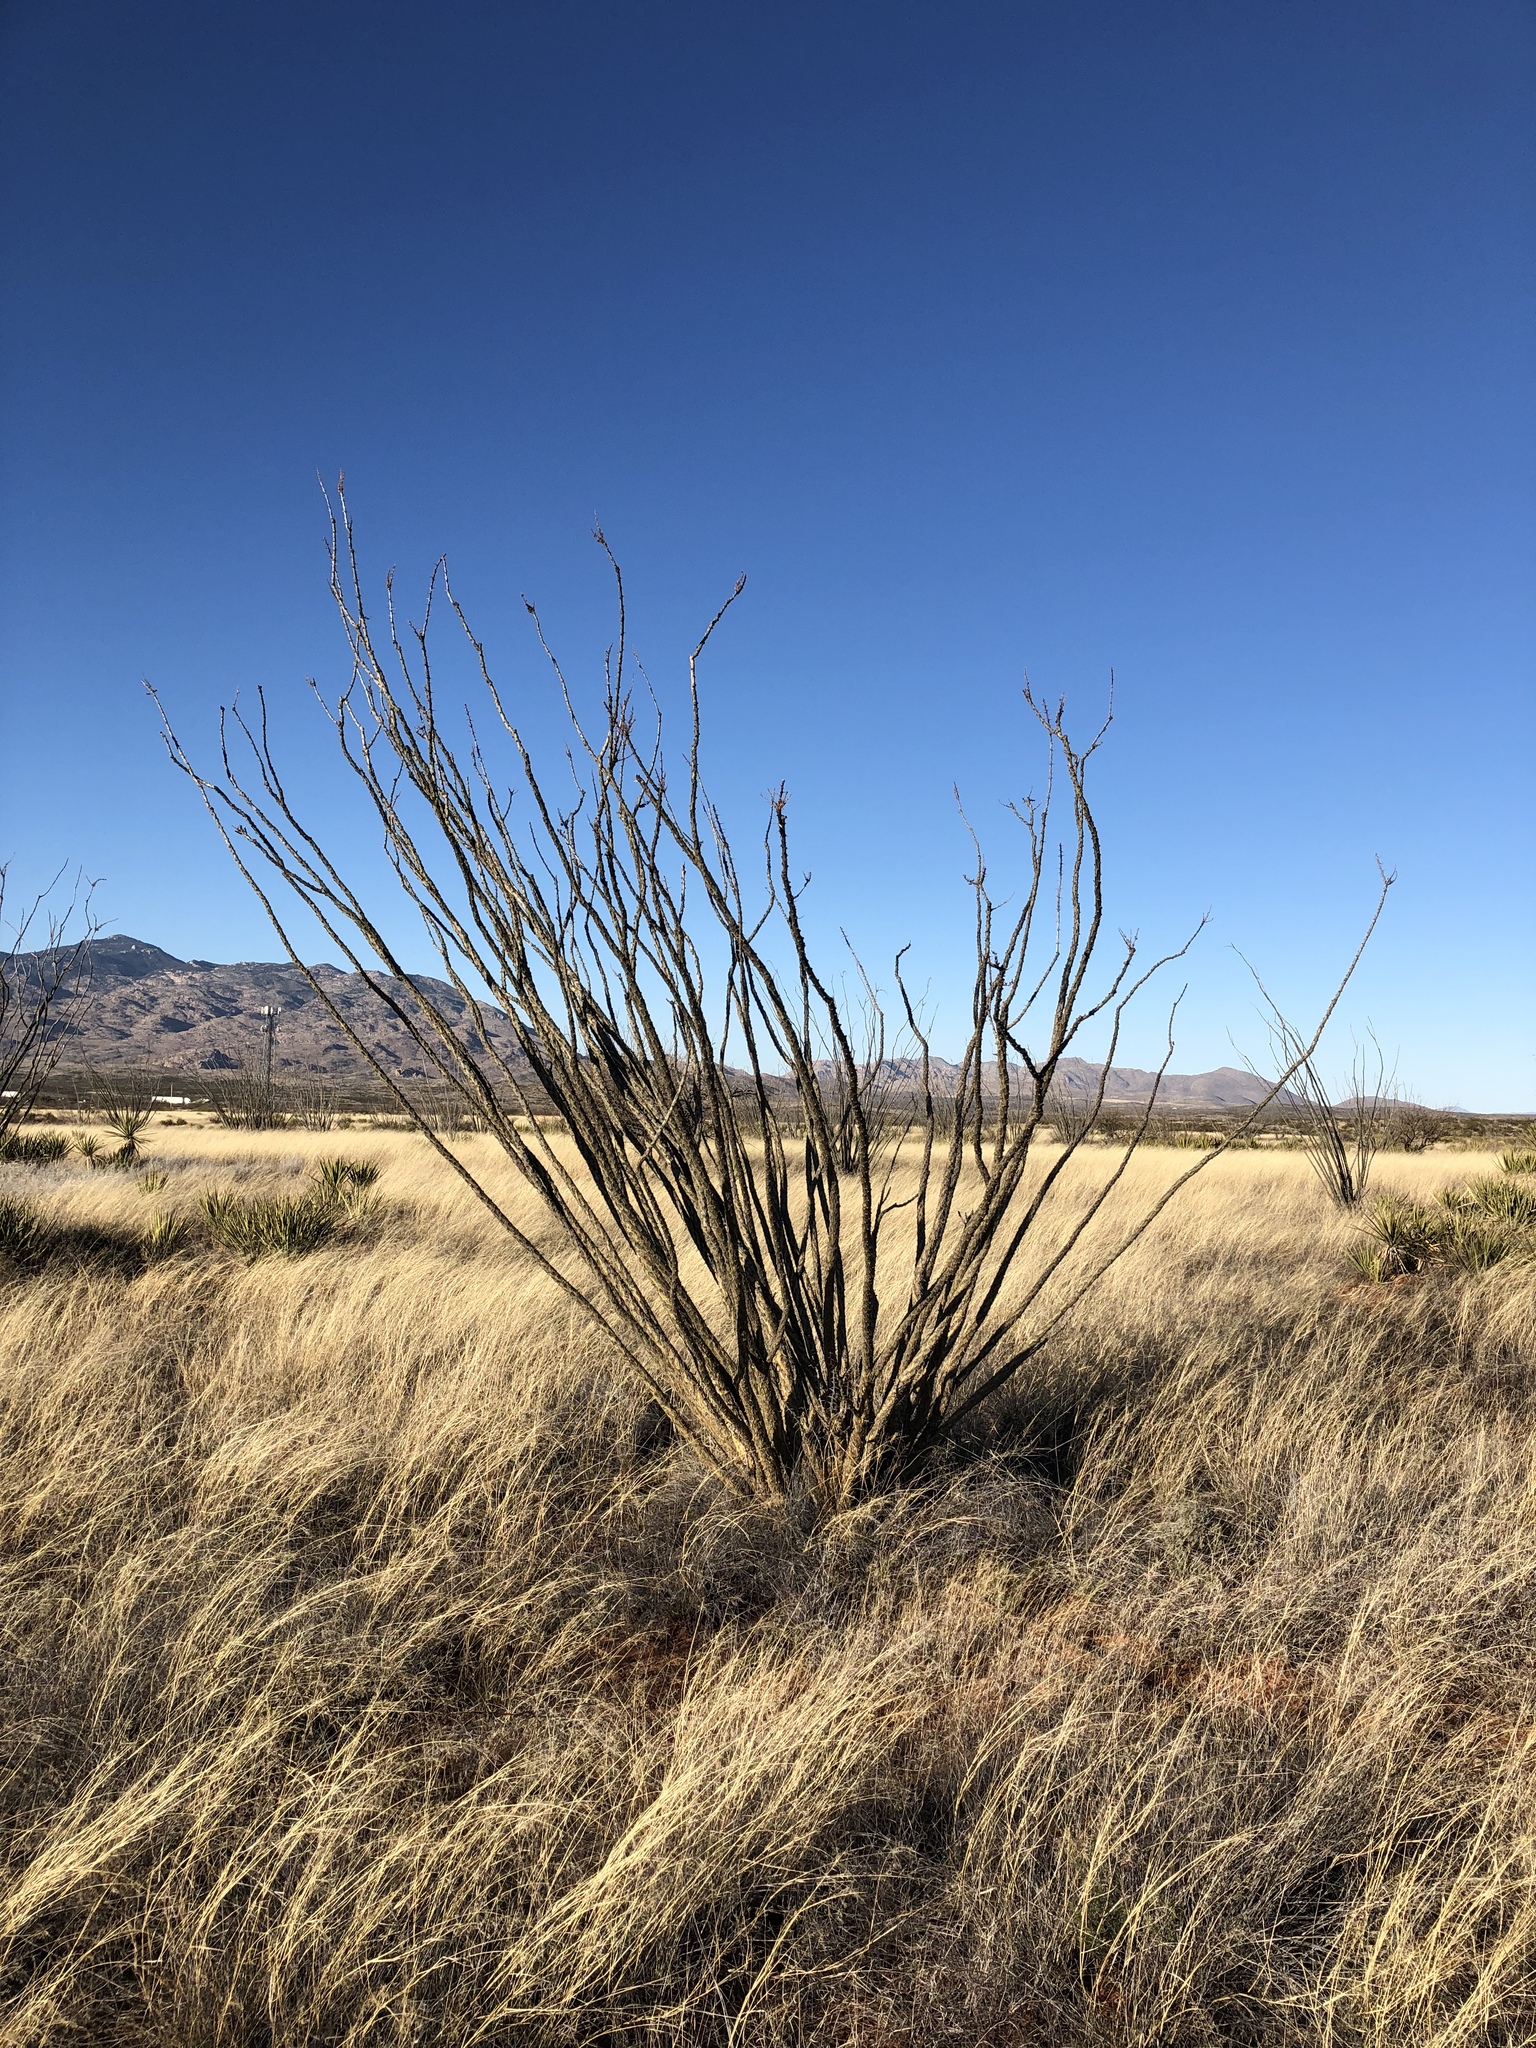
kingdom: Plantae
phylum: Tracheophyta
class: Magnoliopsida
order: Ericales
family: Fouquieriaceae
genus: Fouquieria
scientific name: Fouquieria splendens
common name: Vine-cactus
